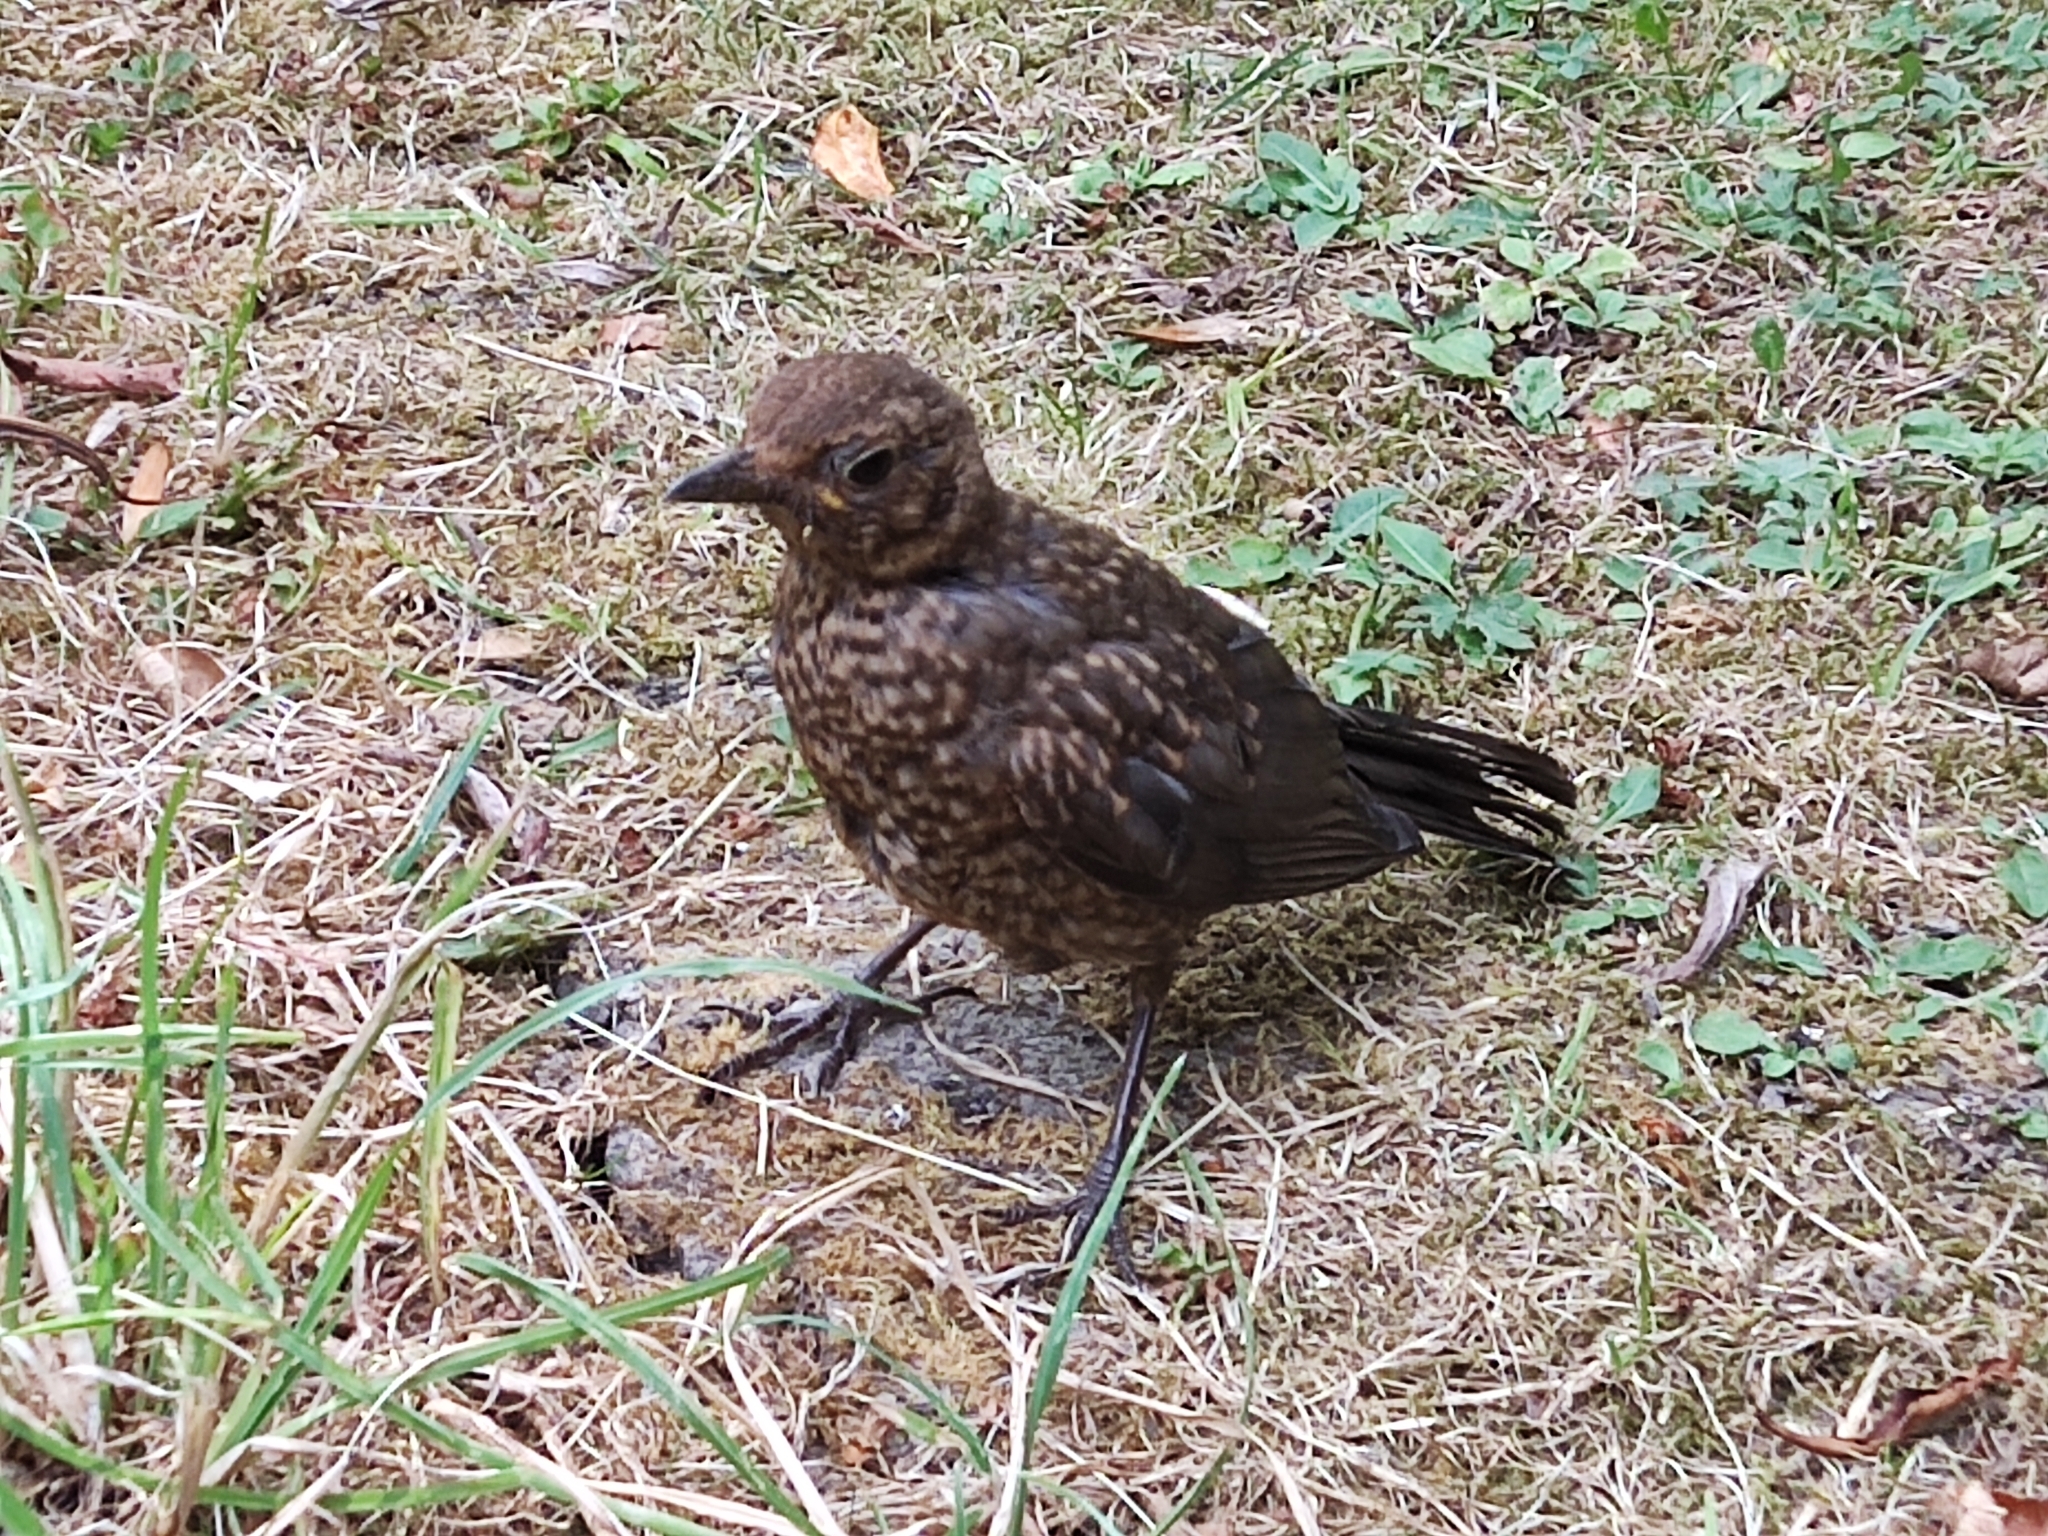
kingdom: Animalia
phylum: Chordata
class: Aves
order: Passeriformes
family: Turdidae
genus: Turdus
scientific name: Turdus merula
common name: Common blackbird
